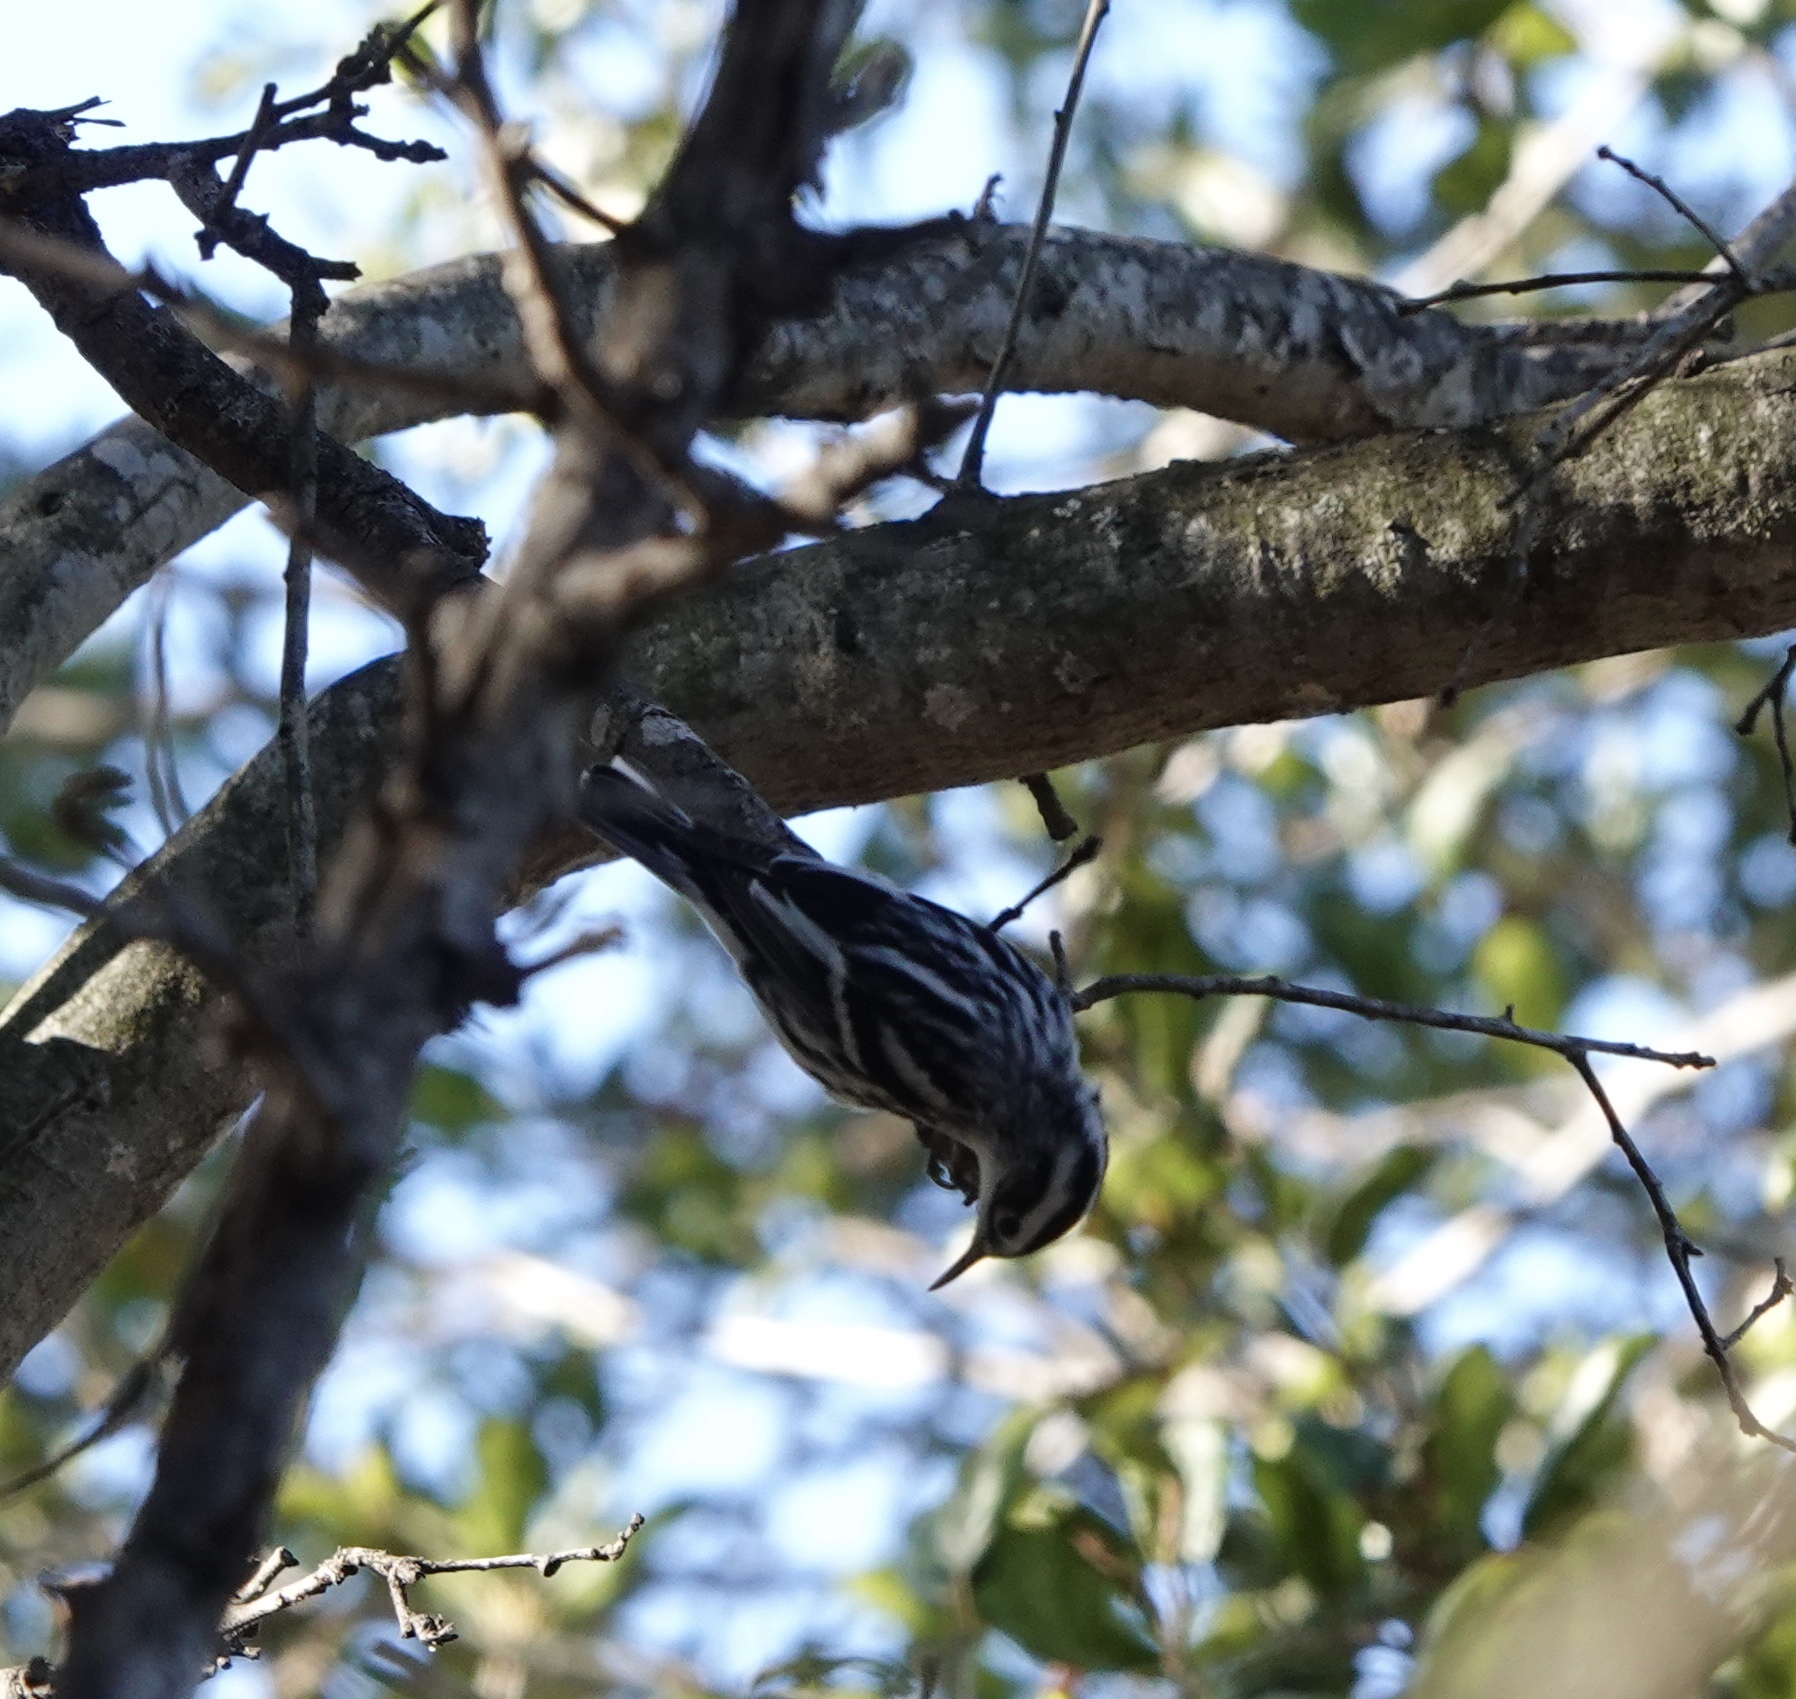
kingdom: Animalia
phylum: Chordata
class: Aves
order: Passeriformes
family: Parulidae
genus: Mniotilta
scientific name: Mniotilta varia
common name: Black-and-white warbler
